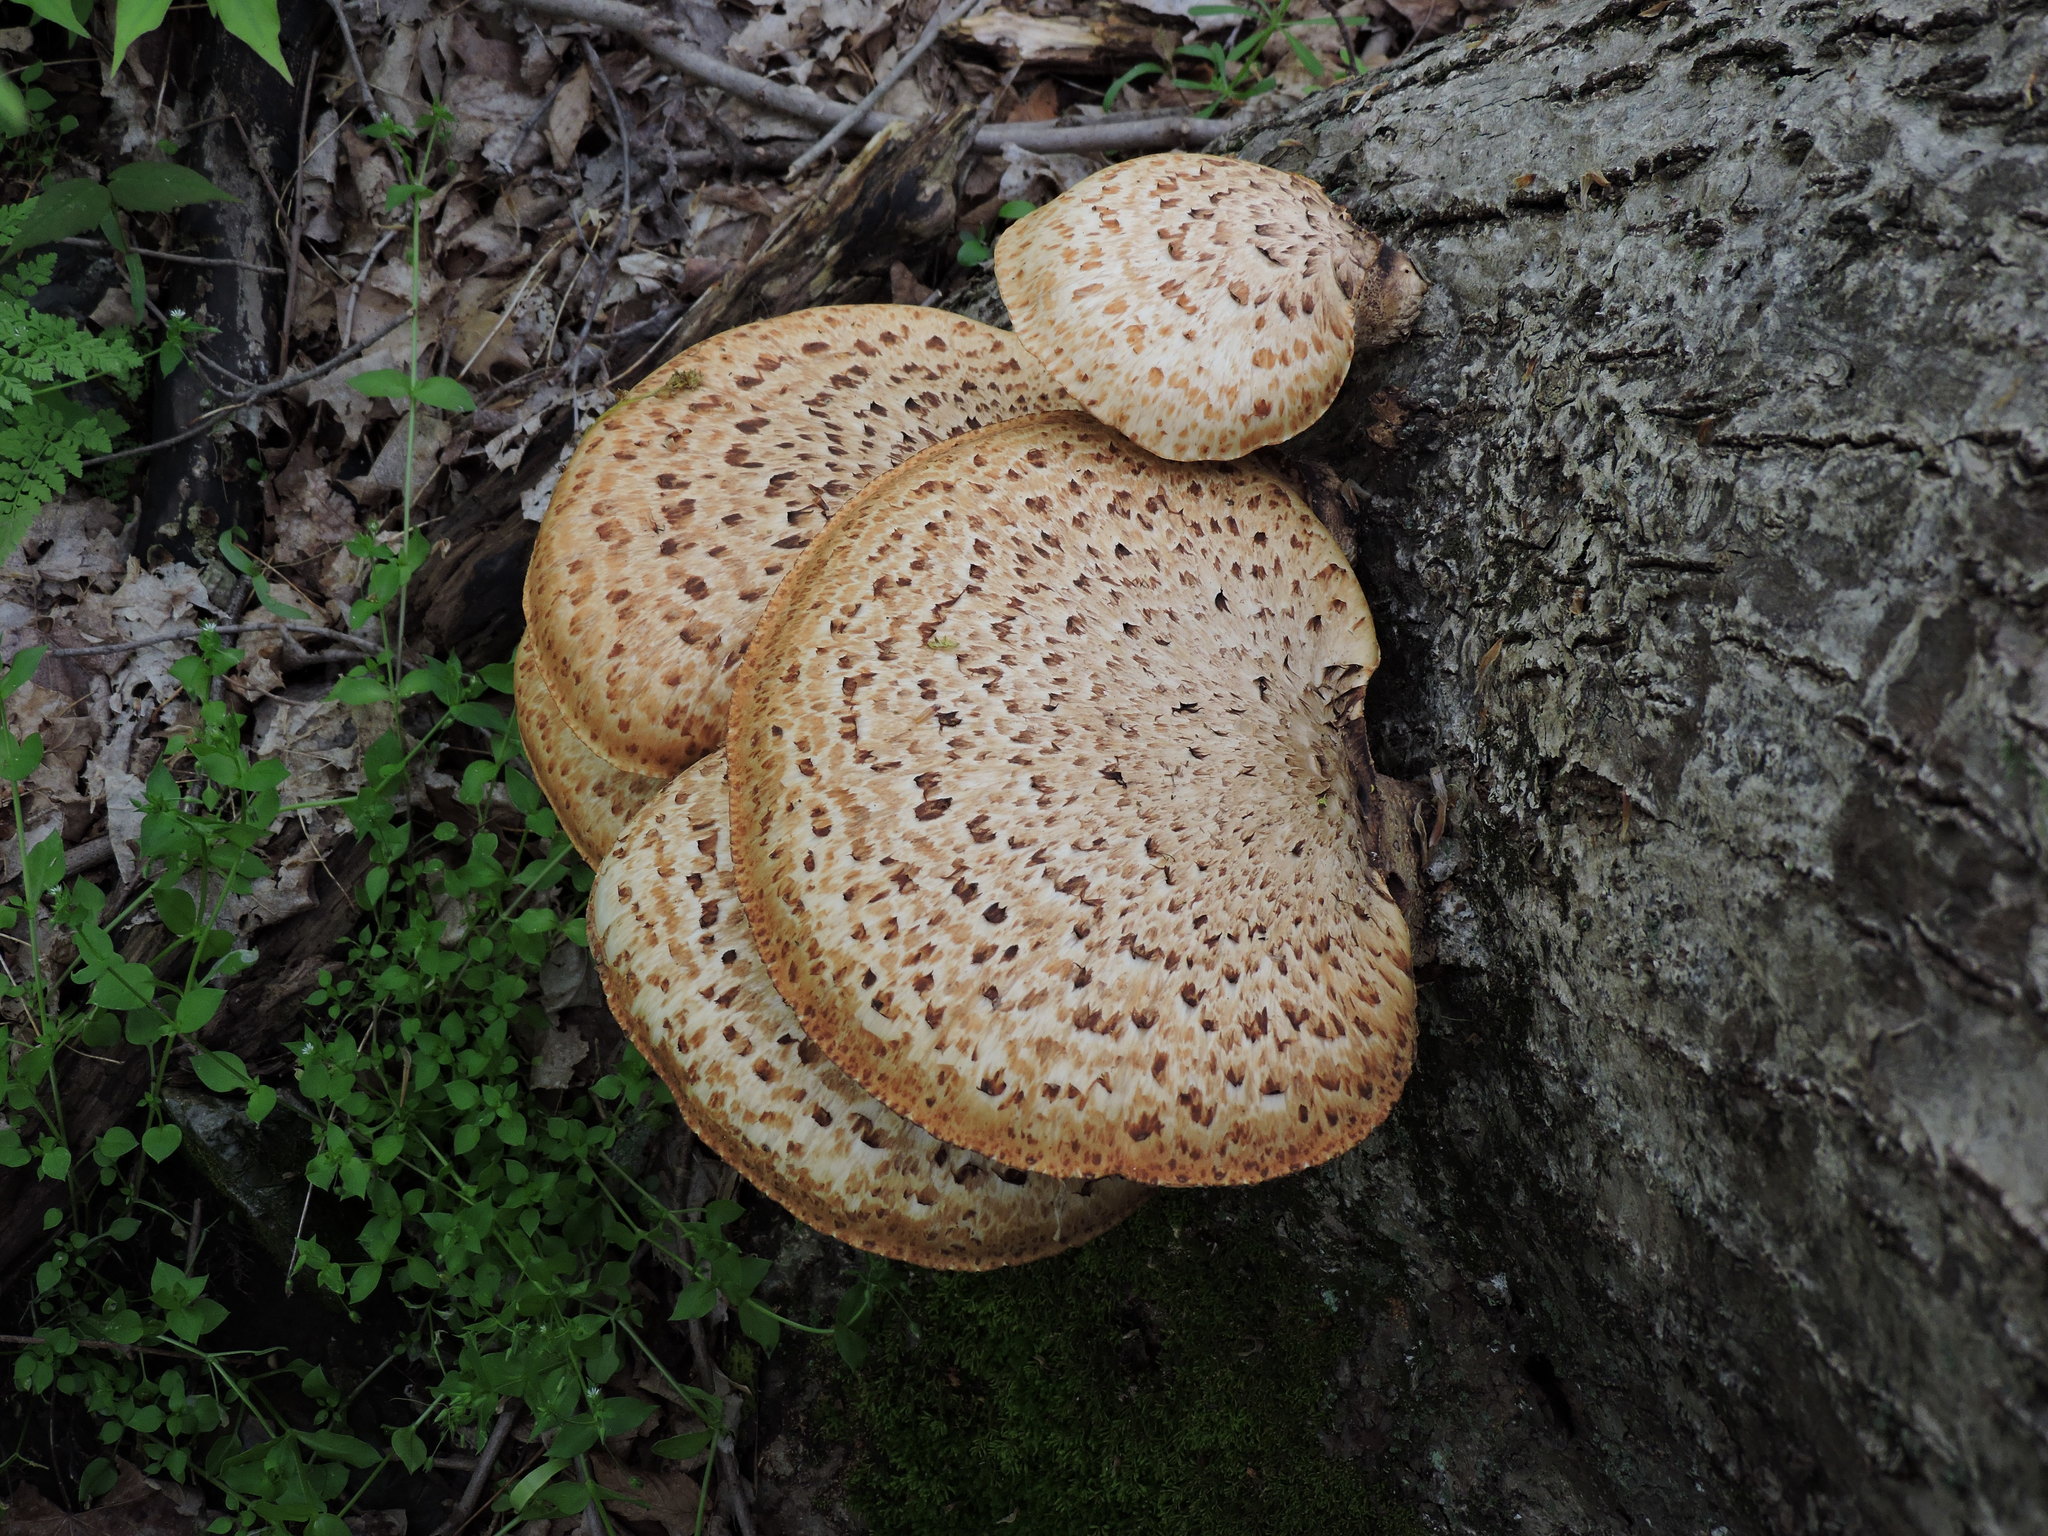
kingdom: Fungi
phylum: Basidiomycota
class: Agaricomycetes
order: Polyporales
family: Polyporaceae
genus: Cerioporus
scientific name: Cerioporus squamosus
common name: Dryad's saddle
